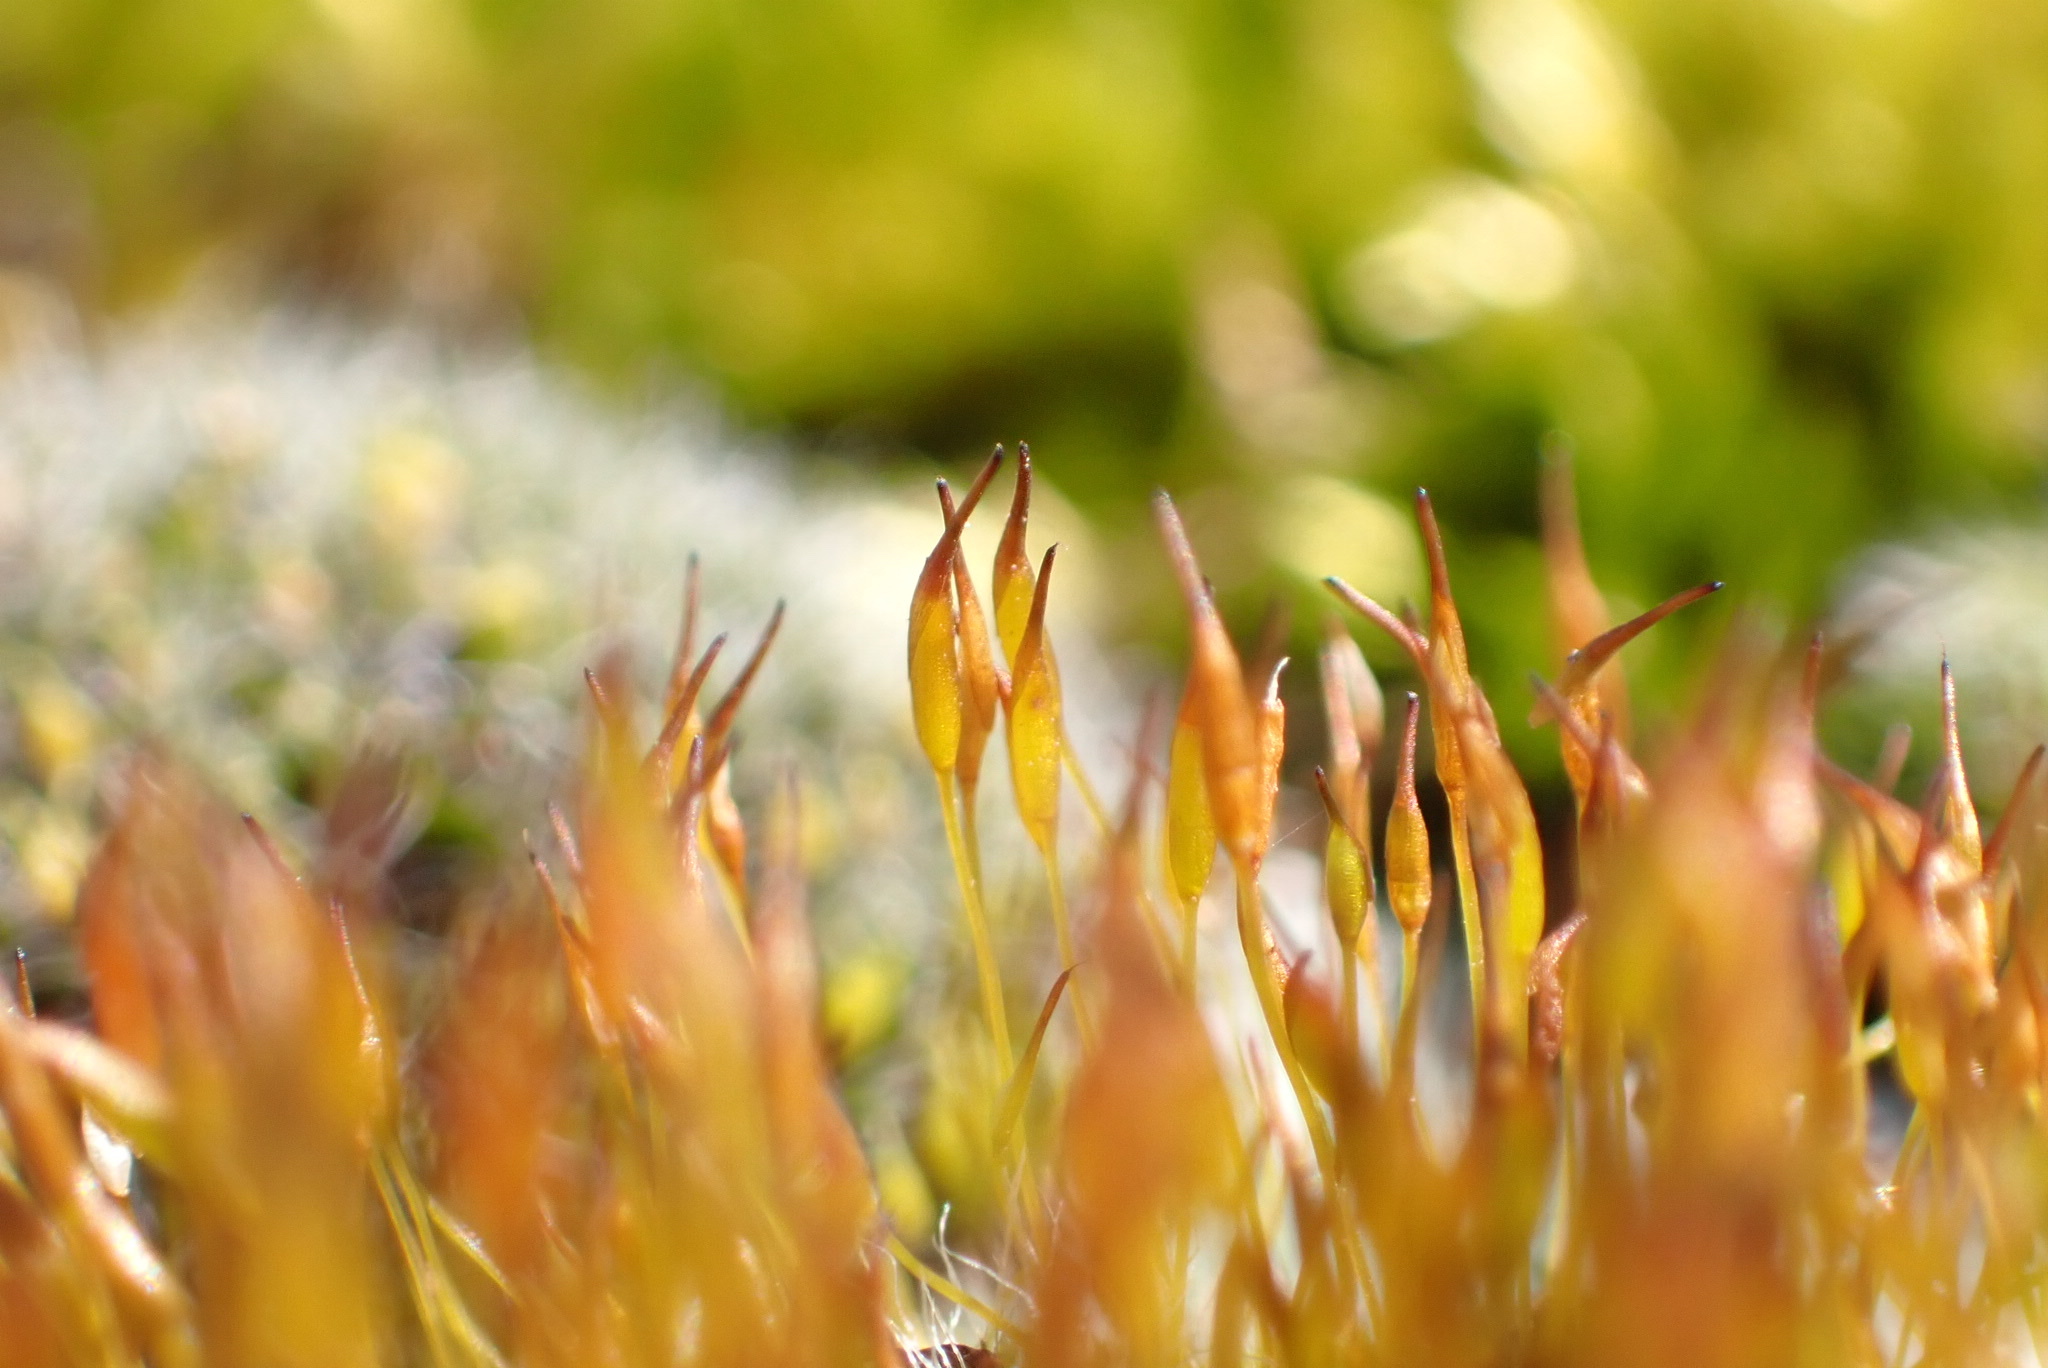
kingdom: Plantae
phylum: Bryophyta
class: Bryopsida
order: Pottiales
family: Pottiaceae
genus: Tortula
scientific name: Tortula muralis
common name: Wall screw-moss
